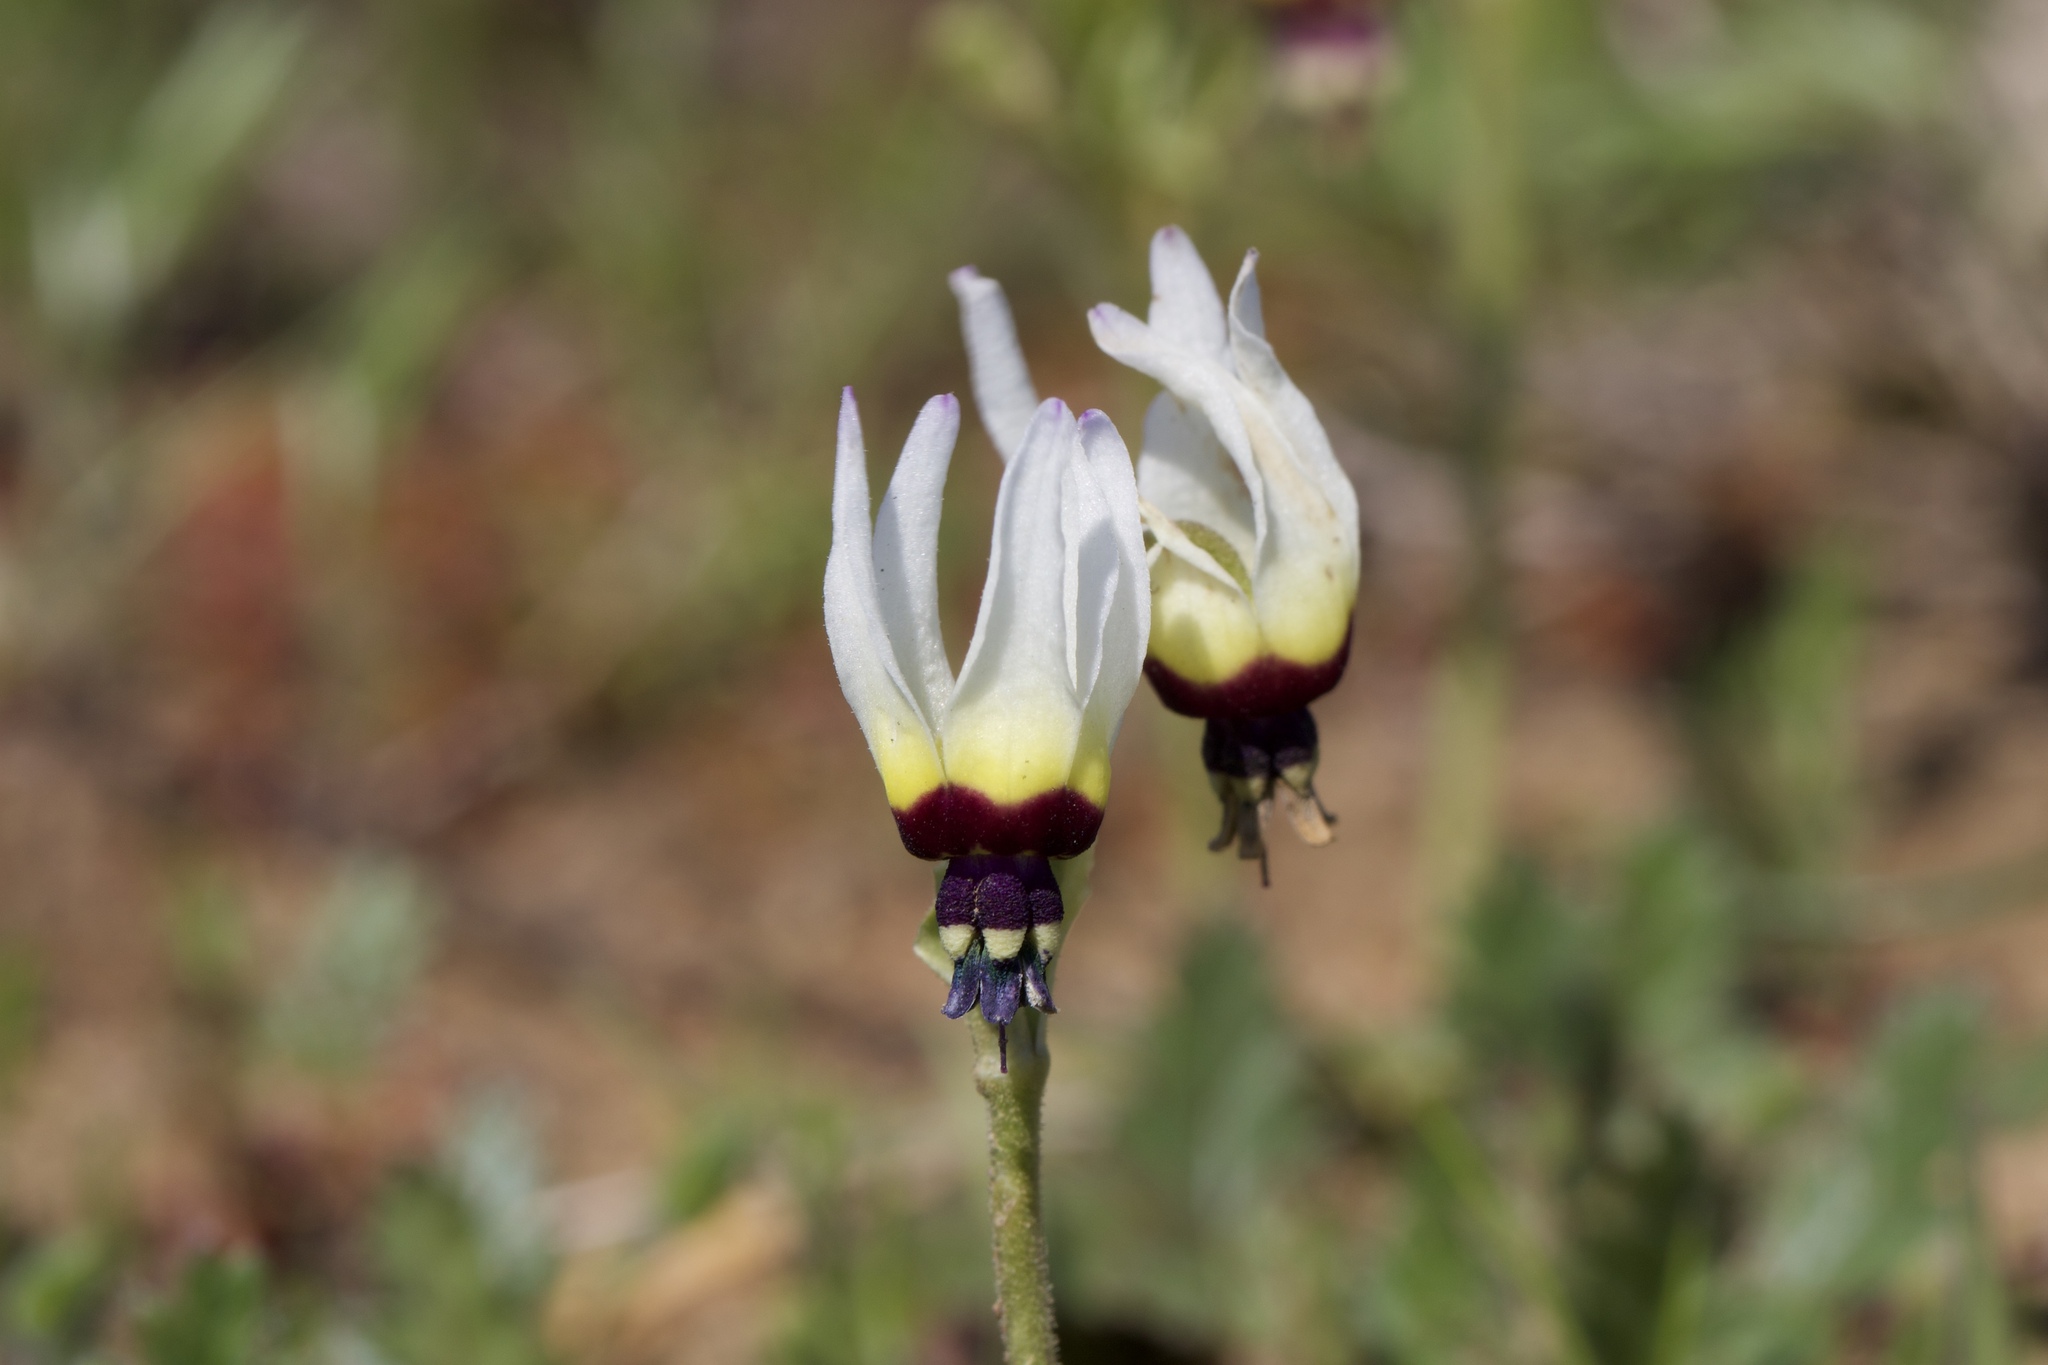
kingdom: Plantae
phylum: Tracheophyta
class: Magnoliopsida
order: Ericales
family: Primulaceae
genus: Dodecatheon
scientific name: Dodecatheon clevelandii
